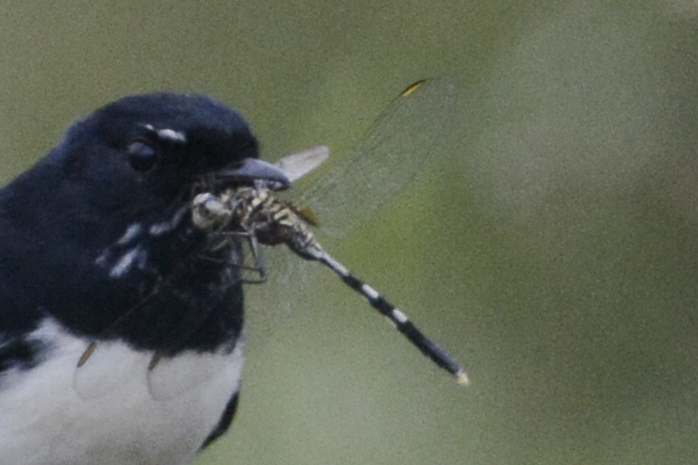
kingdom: Animalia
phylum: Arthropoda
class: Insecta
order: Odonata
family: Libellulidae
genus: Orthetrum
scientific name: Orthetrum sabina
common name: Slender skimmer
